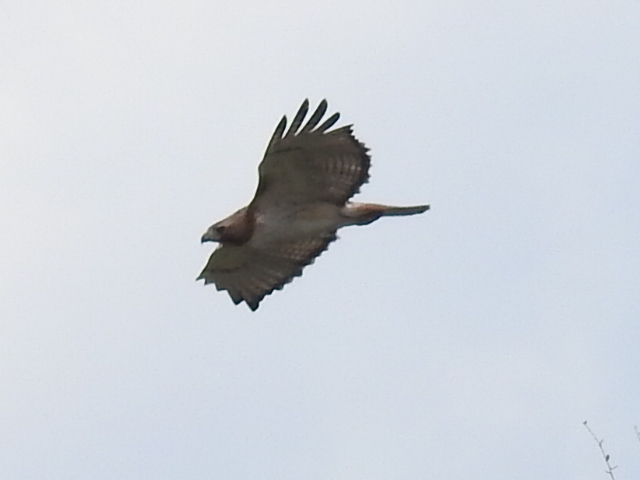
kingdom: Animalia
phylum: Chordata
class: Aves
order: Accipitriformes
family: Accipitridae
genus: Buteo
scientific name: Buteo jamaicensis
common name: Red-tailed hawk
